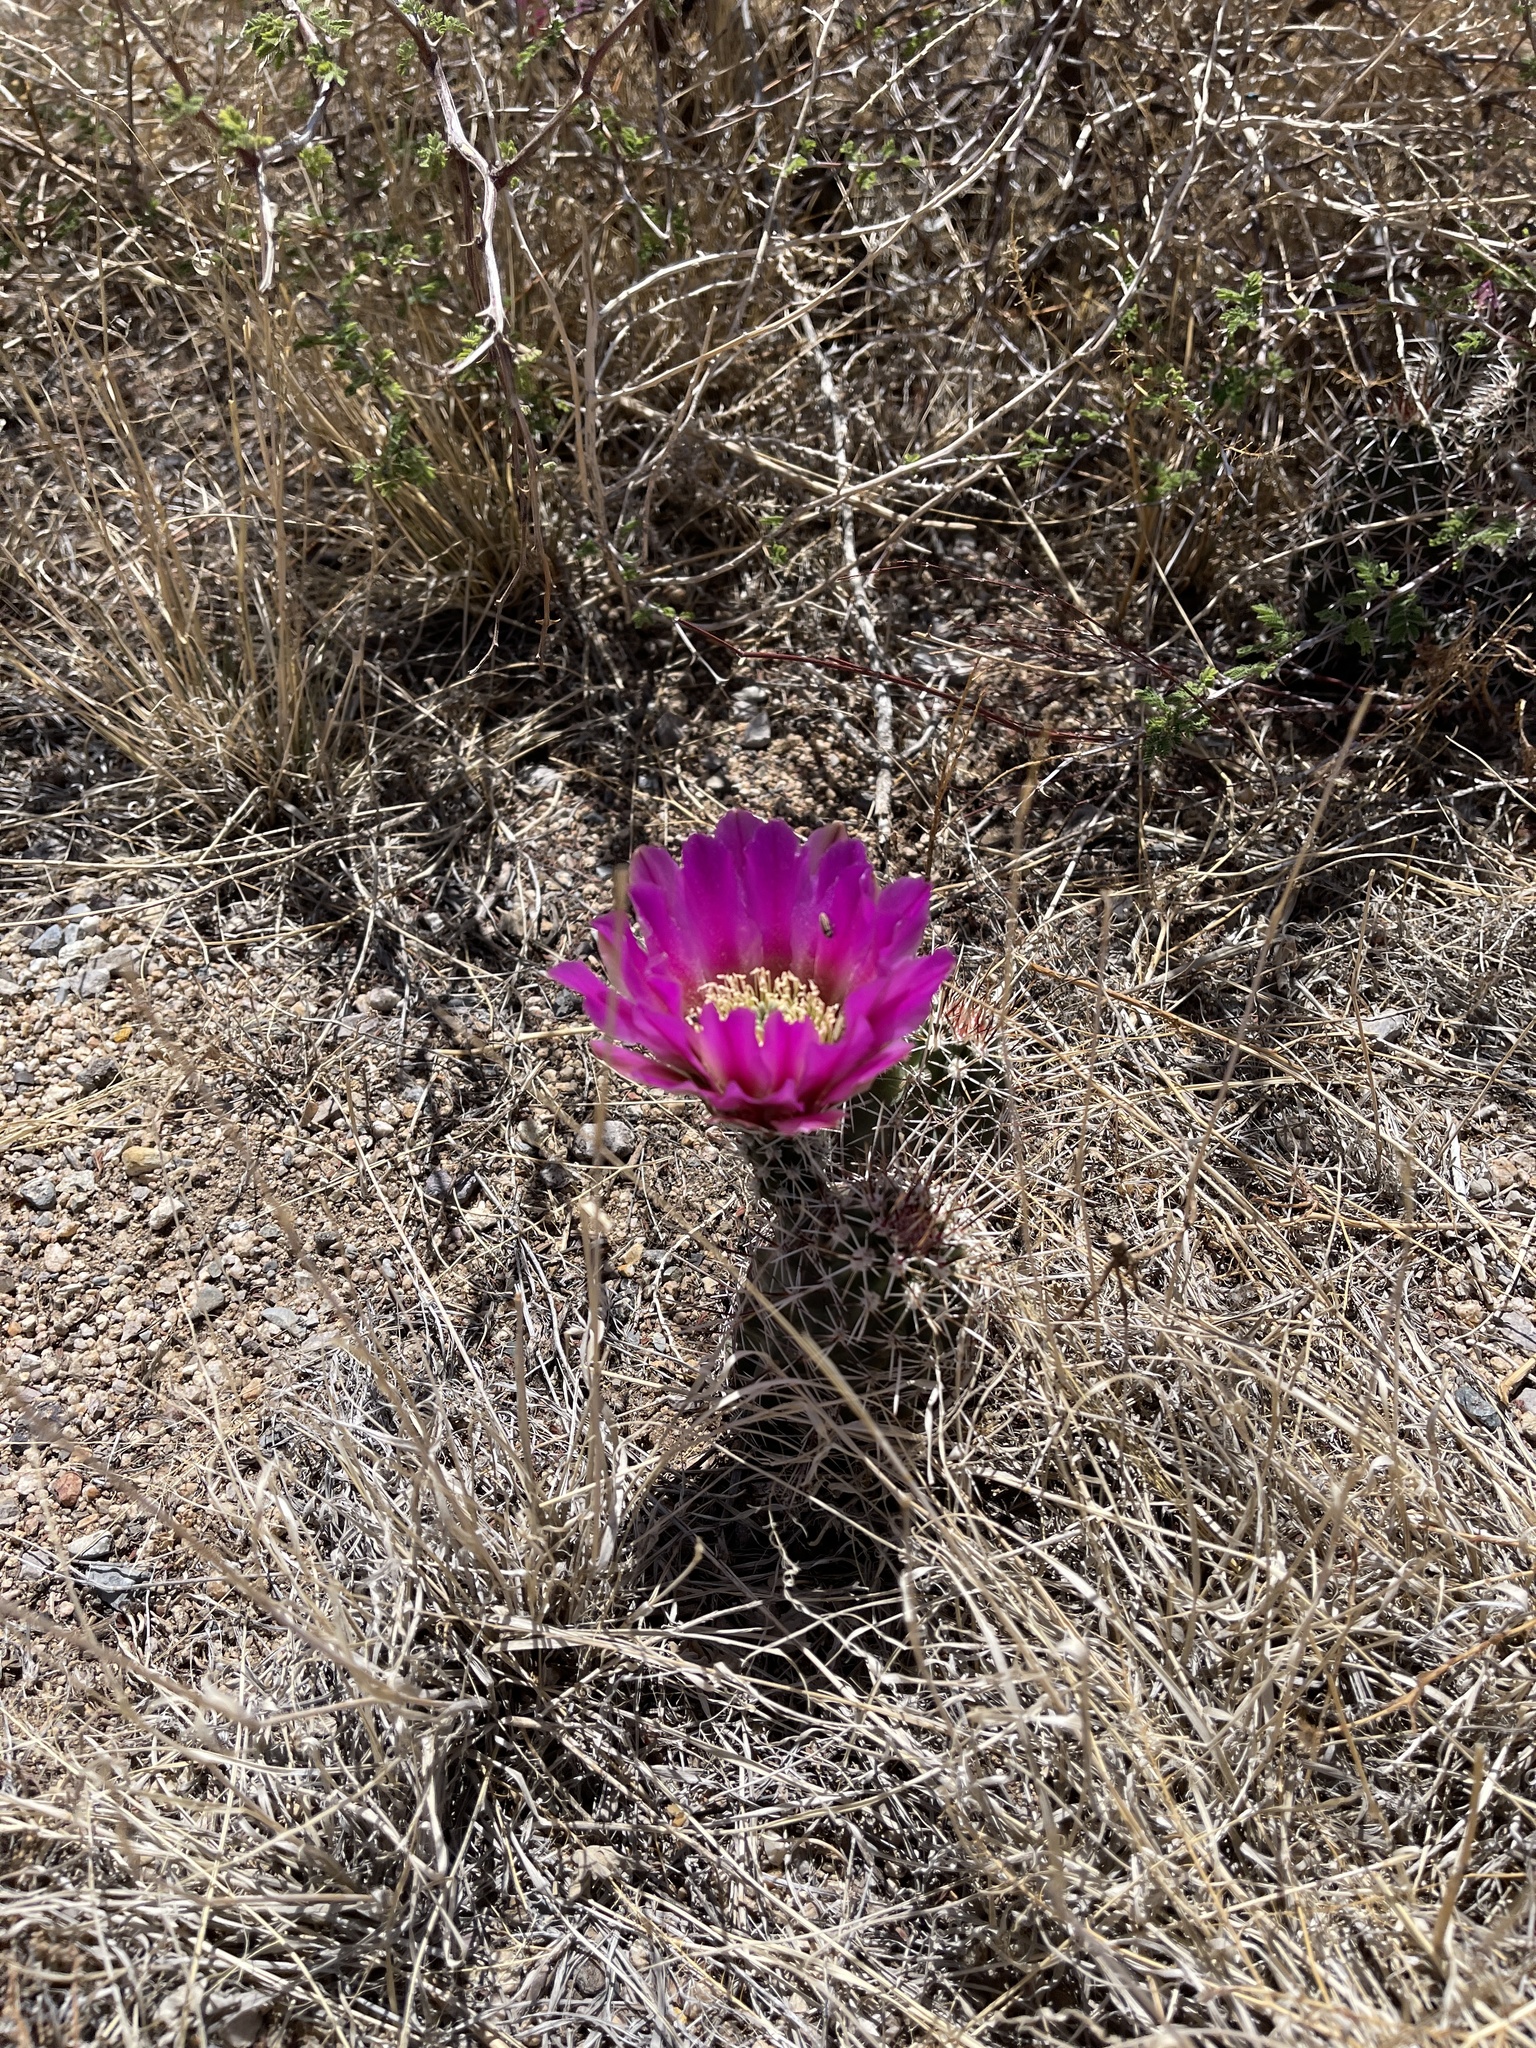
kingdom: Plantae
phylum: Tracheophyta
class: Magnoliopsida
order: Caryophyllales
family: Cactaceae
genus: Echinocereus
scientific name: Echinocereus fendleri
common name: Fendler's hedgehog cactus
